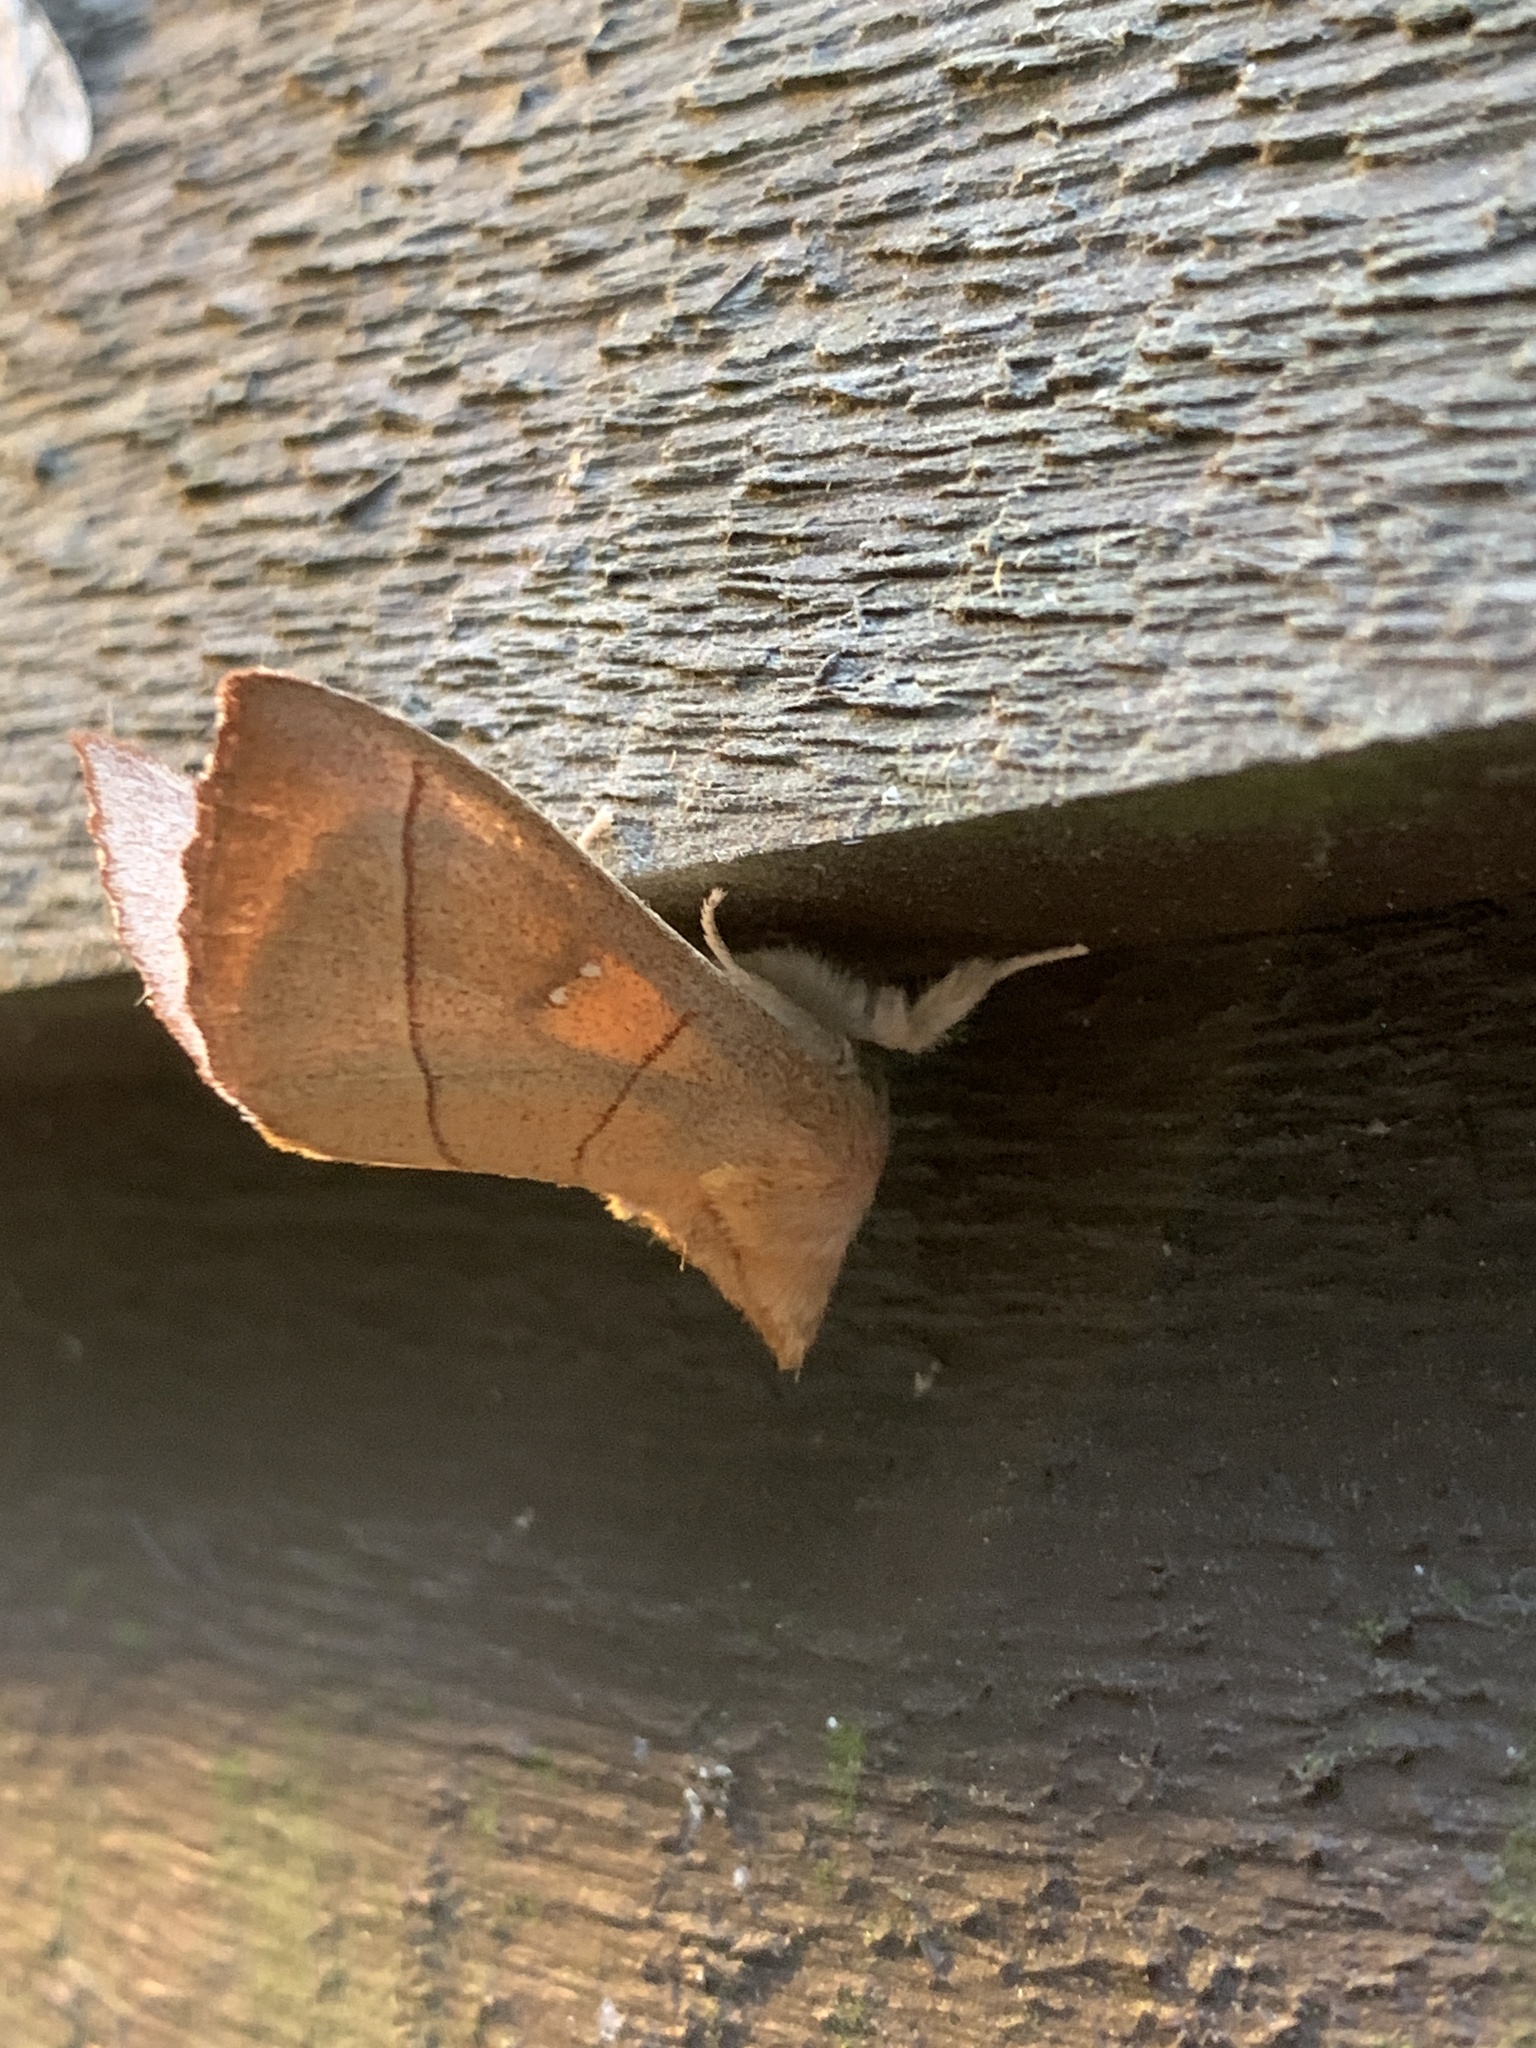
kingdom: Animalia
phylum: Arthropoda
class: Insecta
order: Lepidoptera
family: Notodontidae
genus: Nadata
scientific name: Nadata gibbosa
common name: White-dotted prominent
